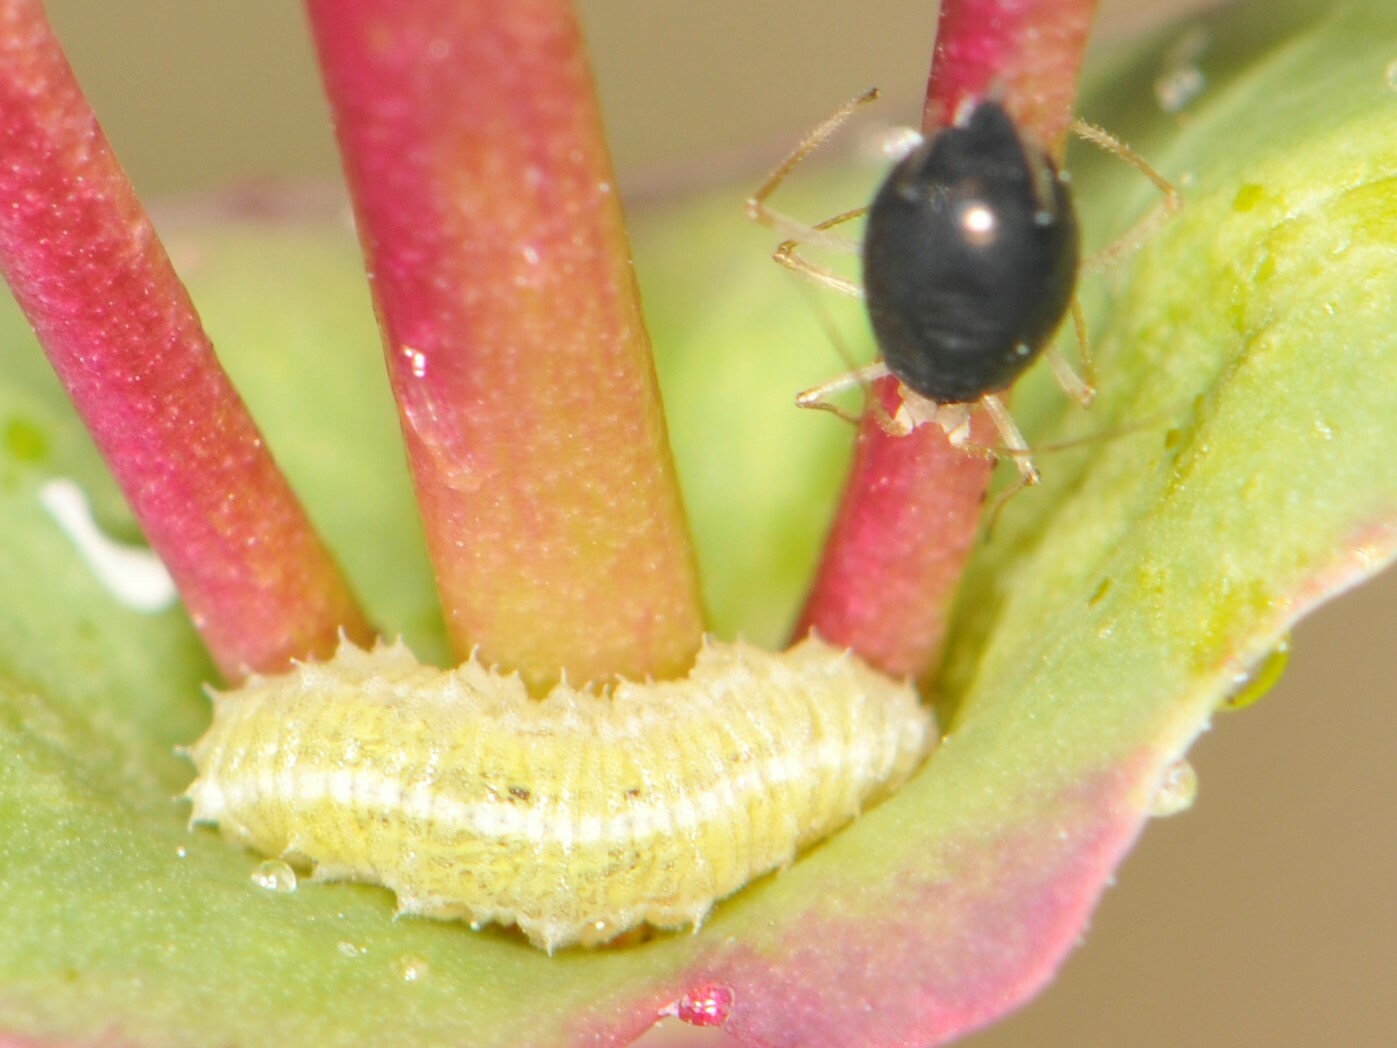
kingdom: Animalia
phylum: Arthropoda
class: Insecta
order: Diptera
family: Syrphidae
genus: Scaeva
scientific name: Scaeva affinis
